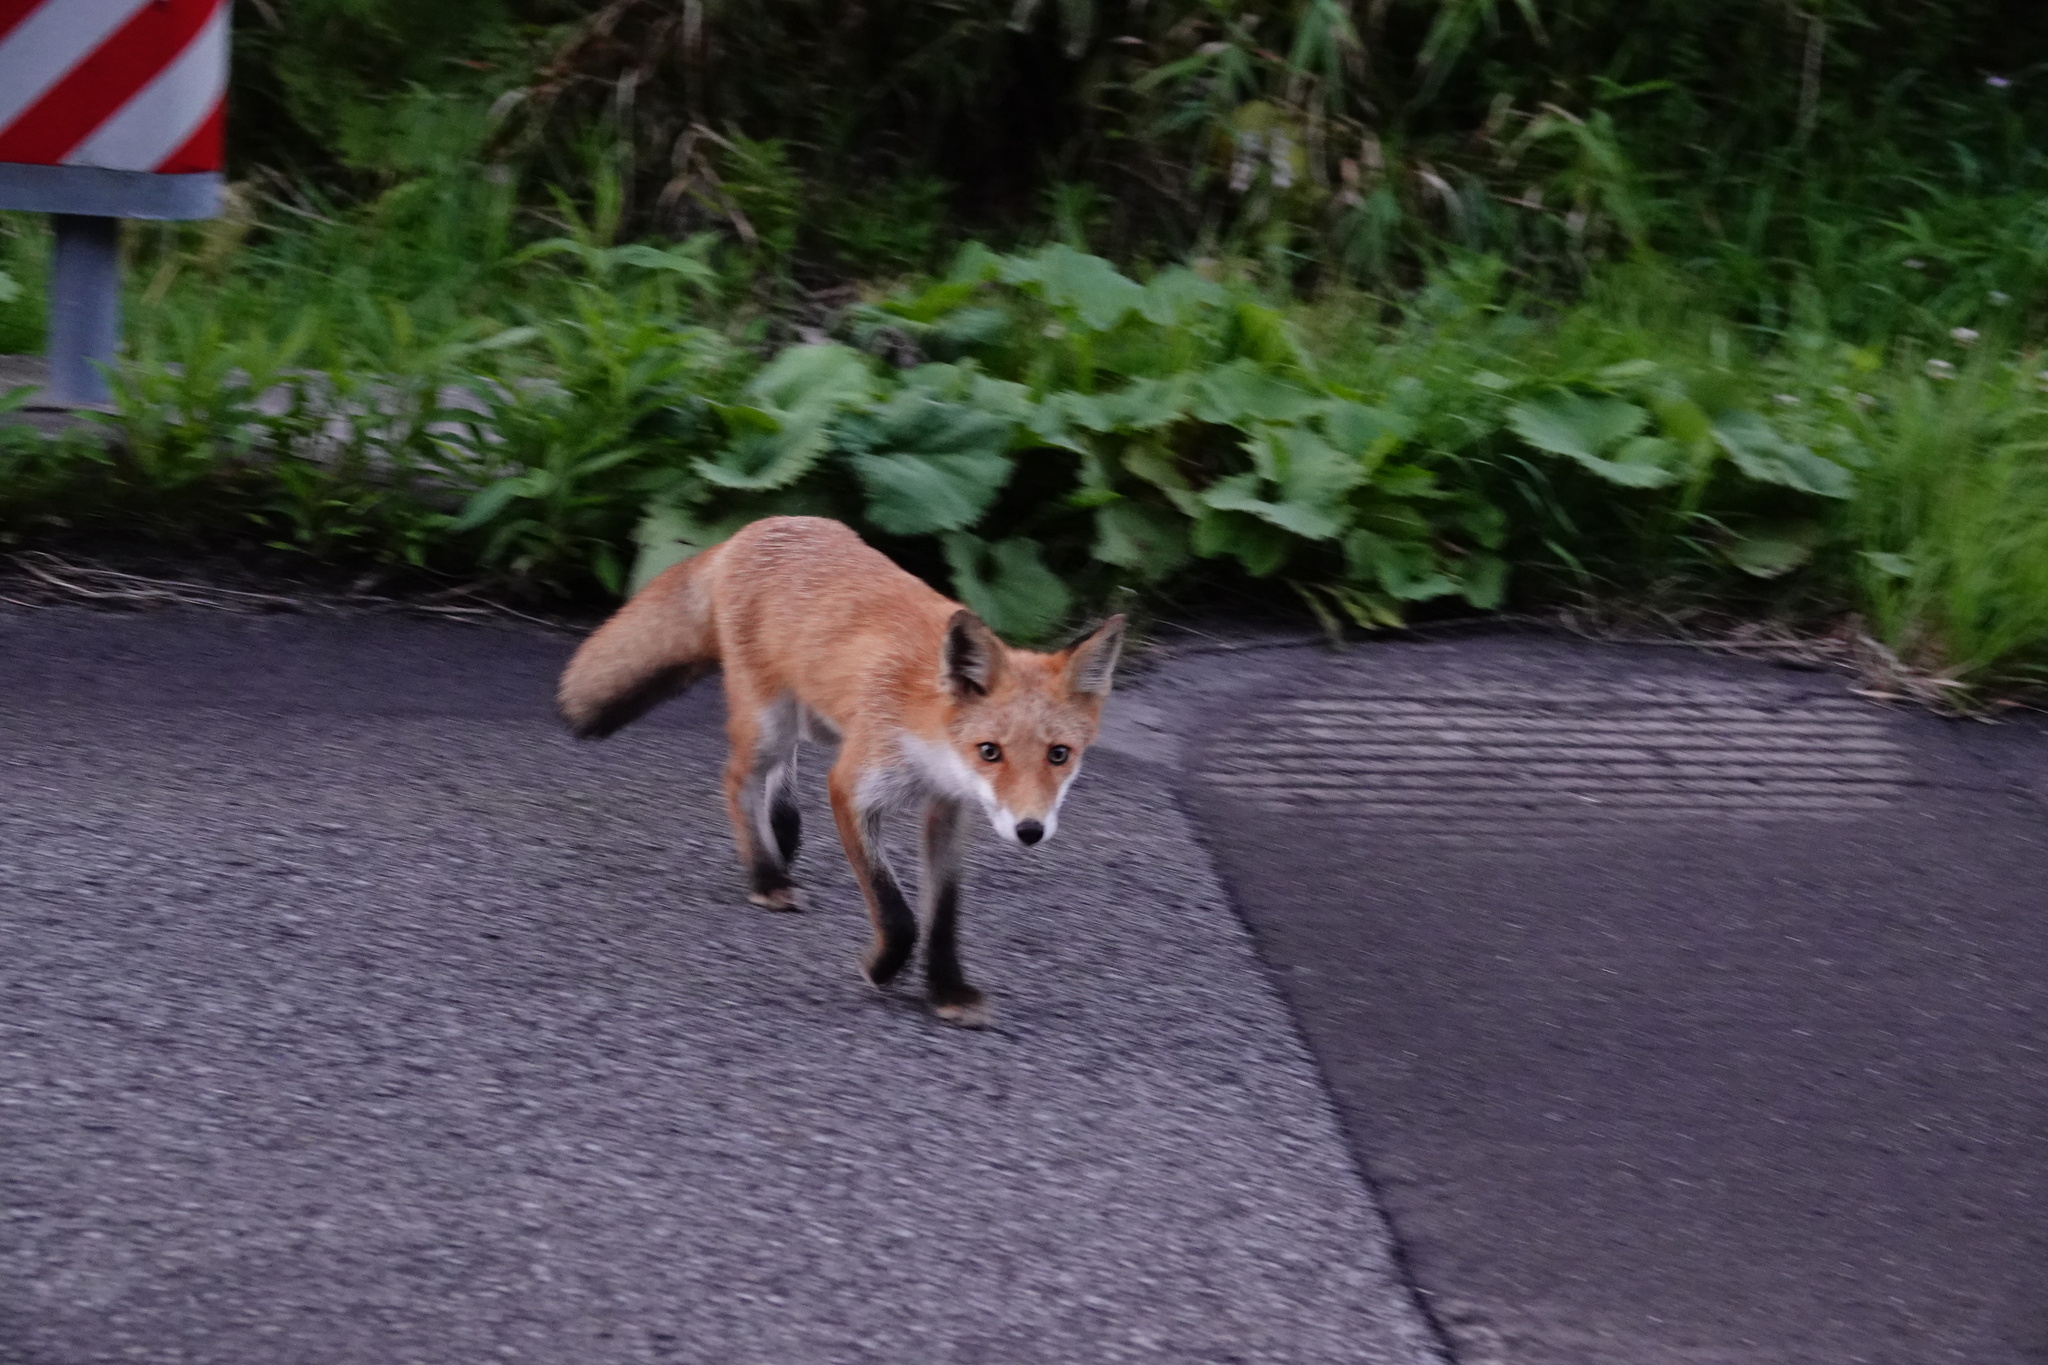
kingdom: Animalia
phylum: Chordata
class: Mammalia
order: Carnivora
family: Canidae
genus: Vulpes
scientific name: Vulpes vulpes
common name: Red fox
